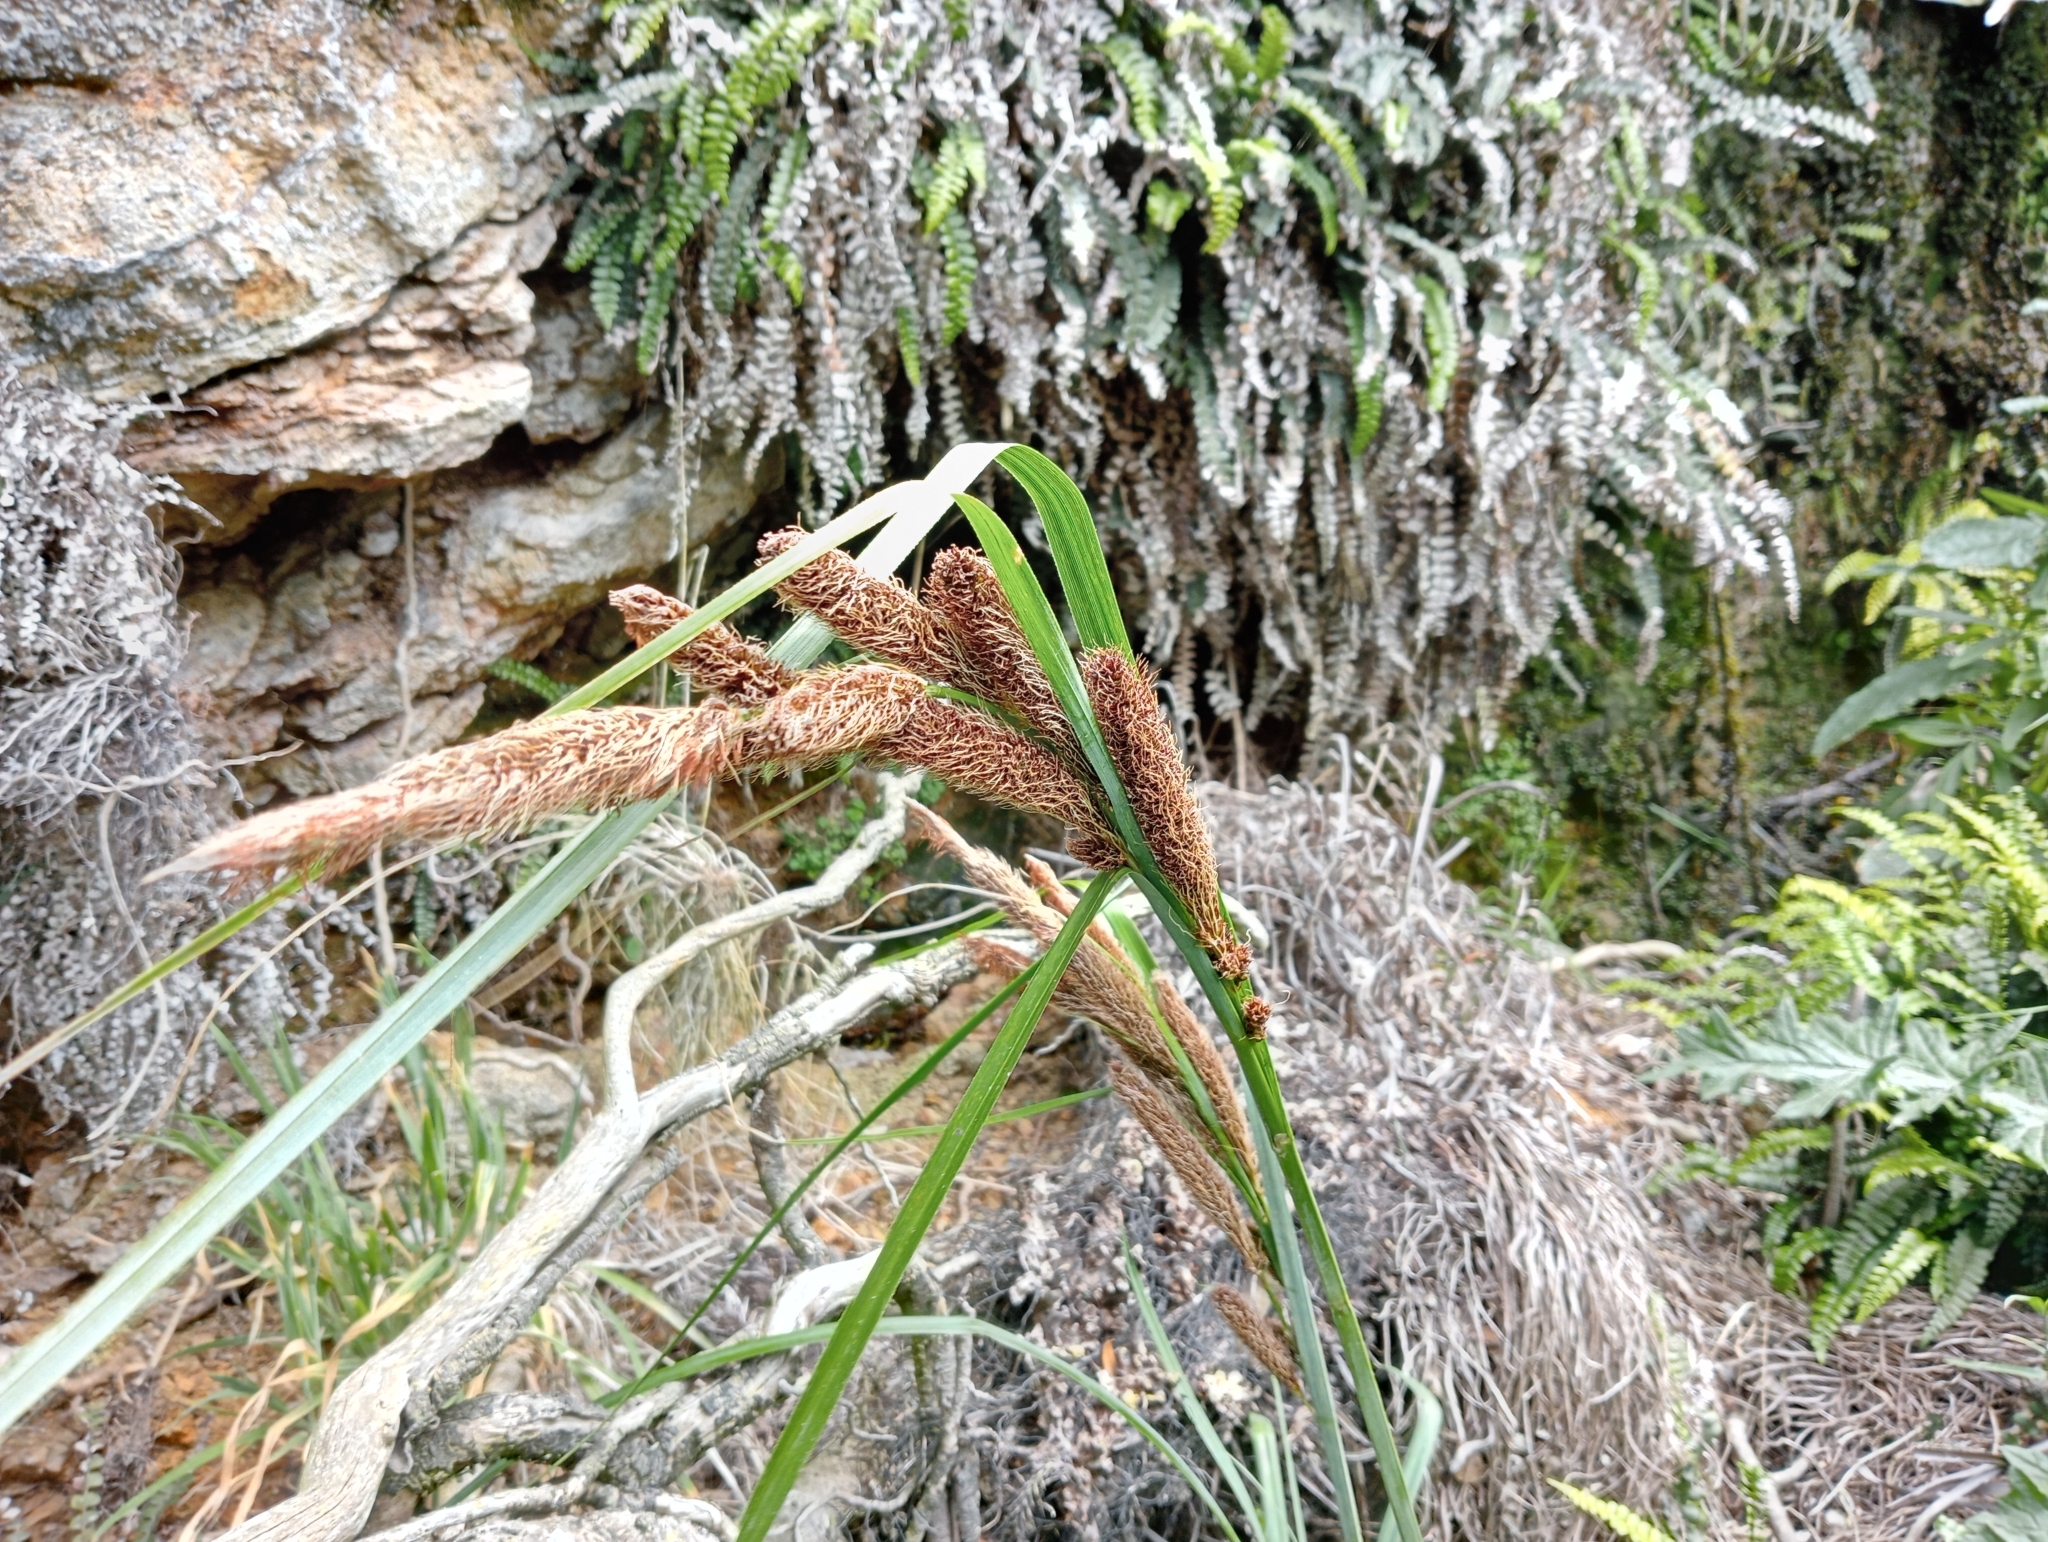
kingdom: Plantae
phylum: Tracheophyta
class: Liliopsida
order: Poales
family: Cyperaceae
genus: Carex
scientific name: Carex trifida
